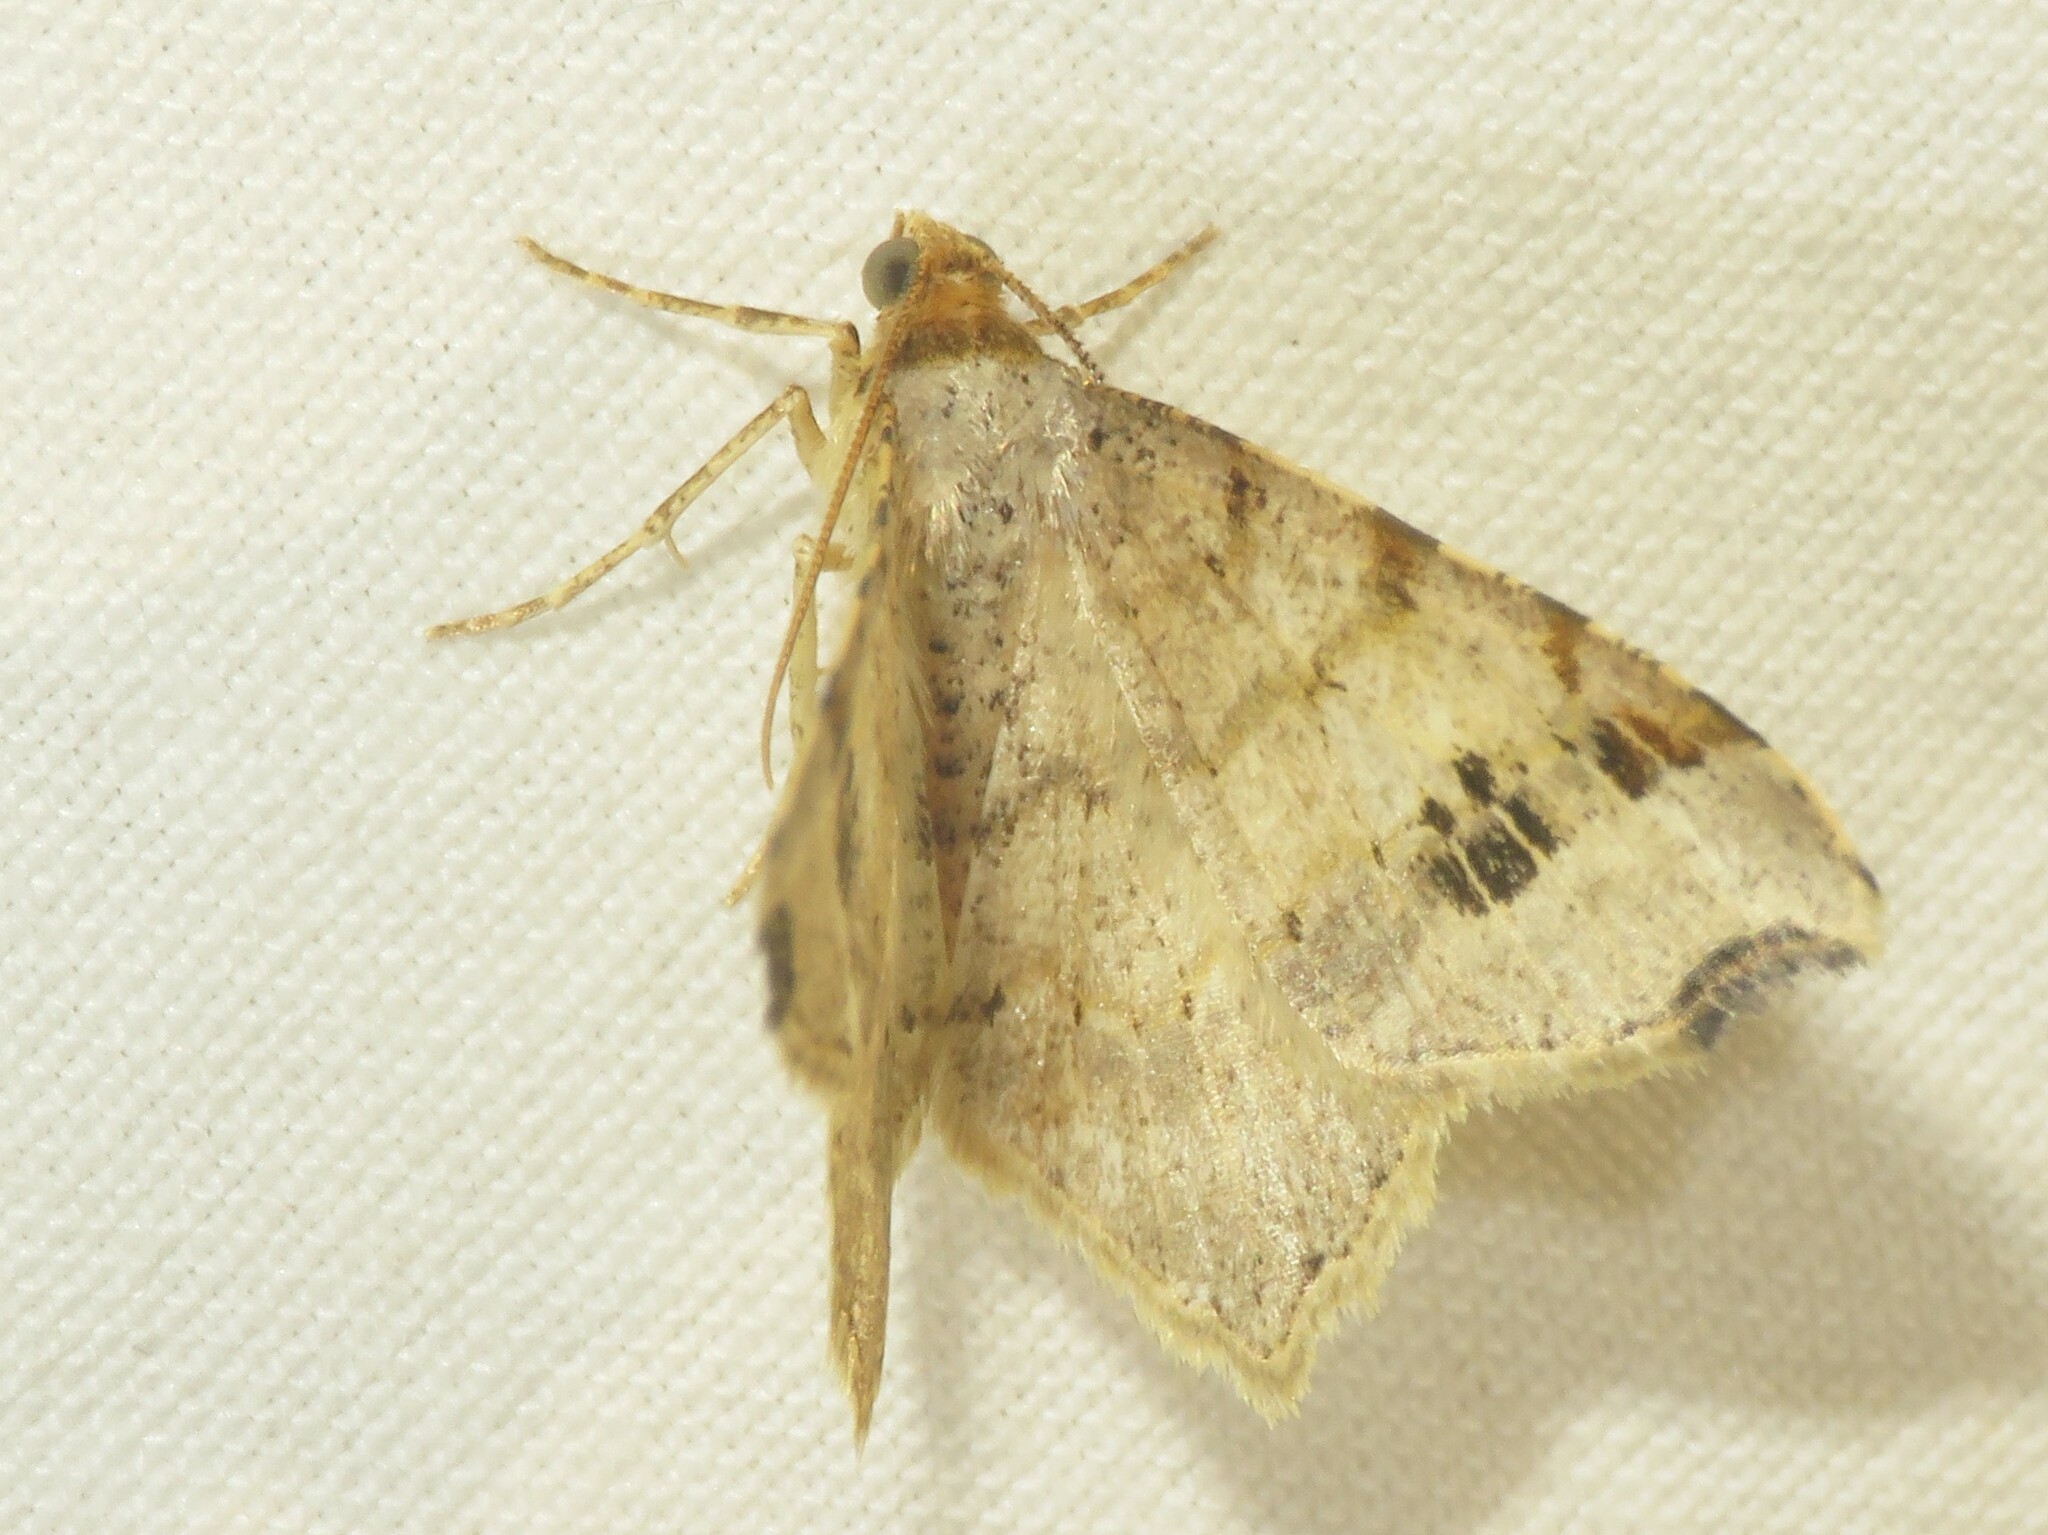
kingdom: Animalia
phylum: Arthropoda
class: Insecta
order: Lepidoptera
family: Geometridae
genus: Macaria
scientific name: Macaria aemulataria
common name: Common angle
